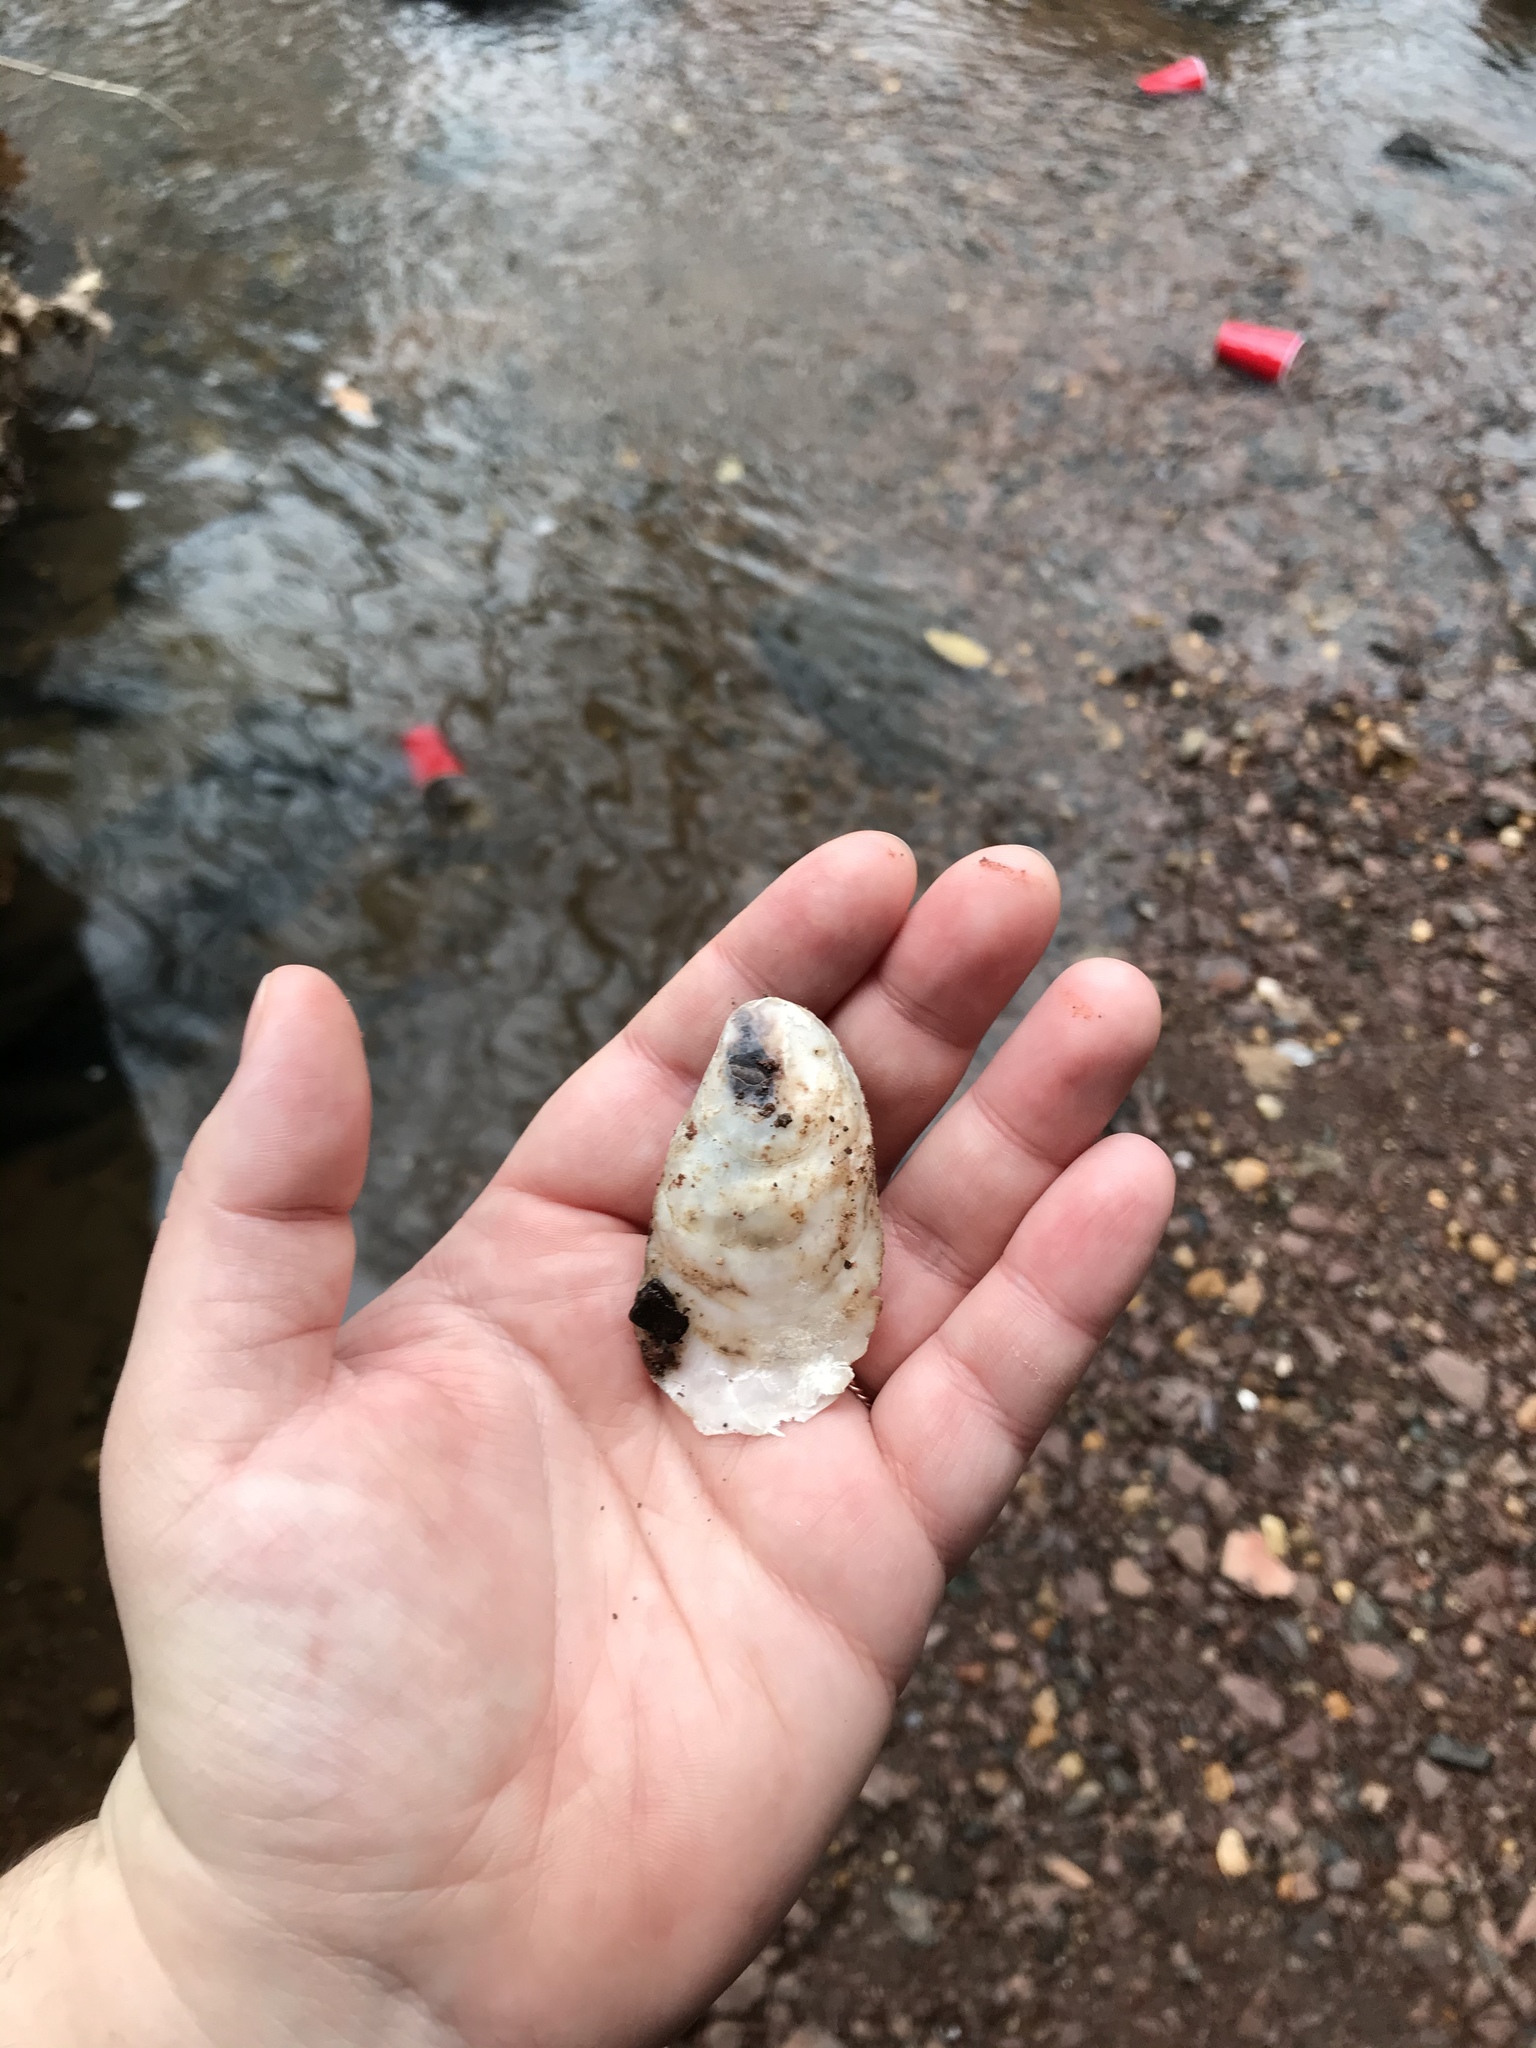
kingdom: Animalia
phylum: Mollusca
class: Bivalvia
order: Ostreida
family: Ostreidae
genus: Crassostrea
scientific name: Crassostrea virginica
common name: American oyster
